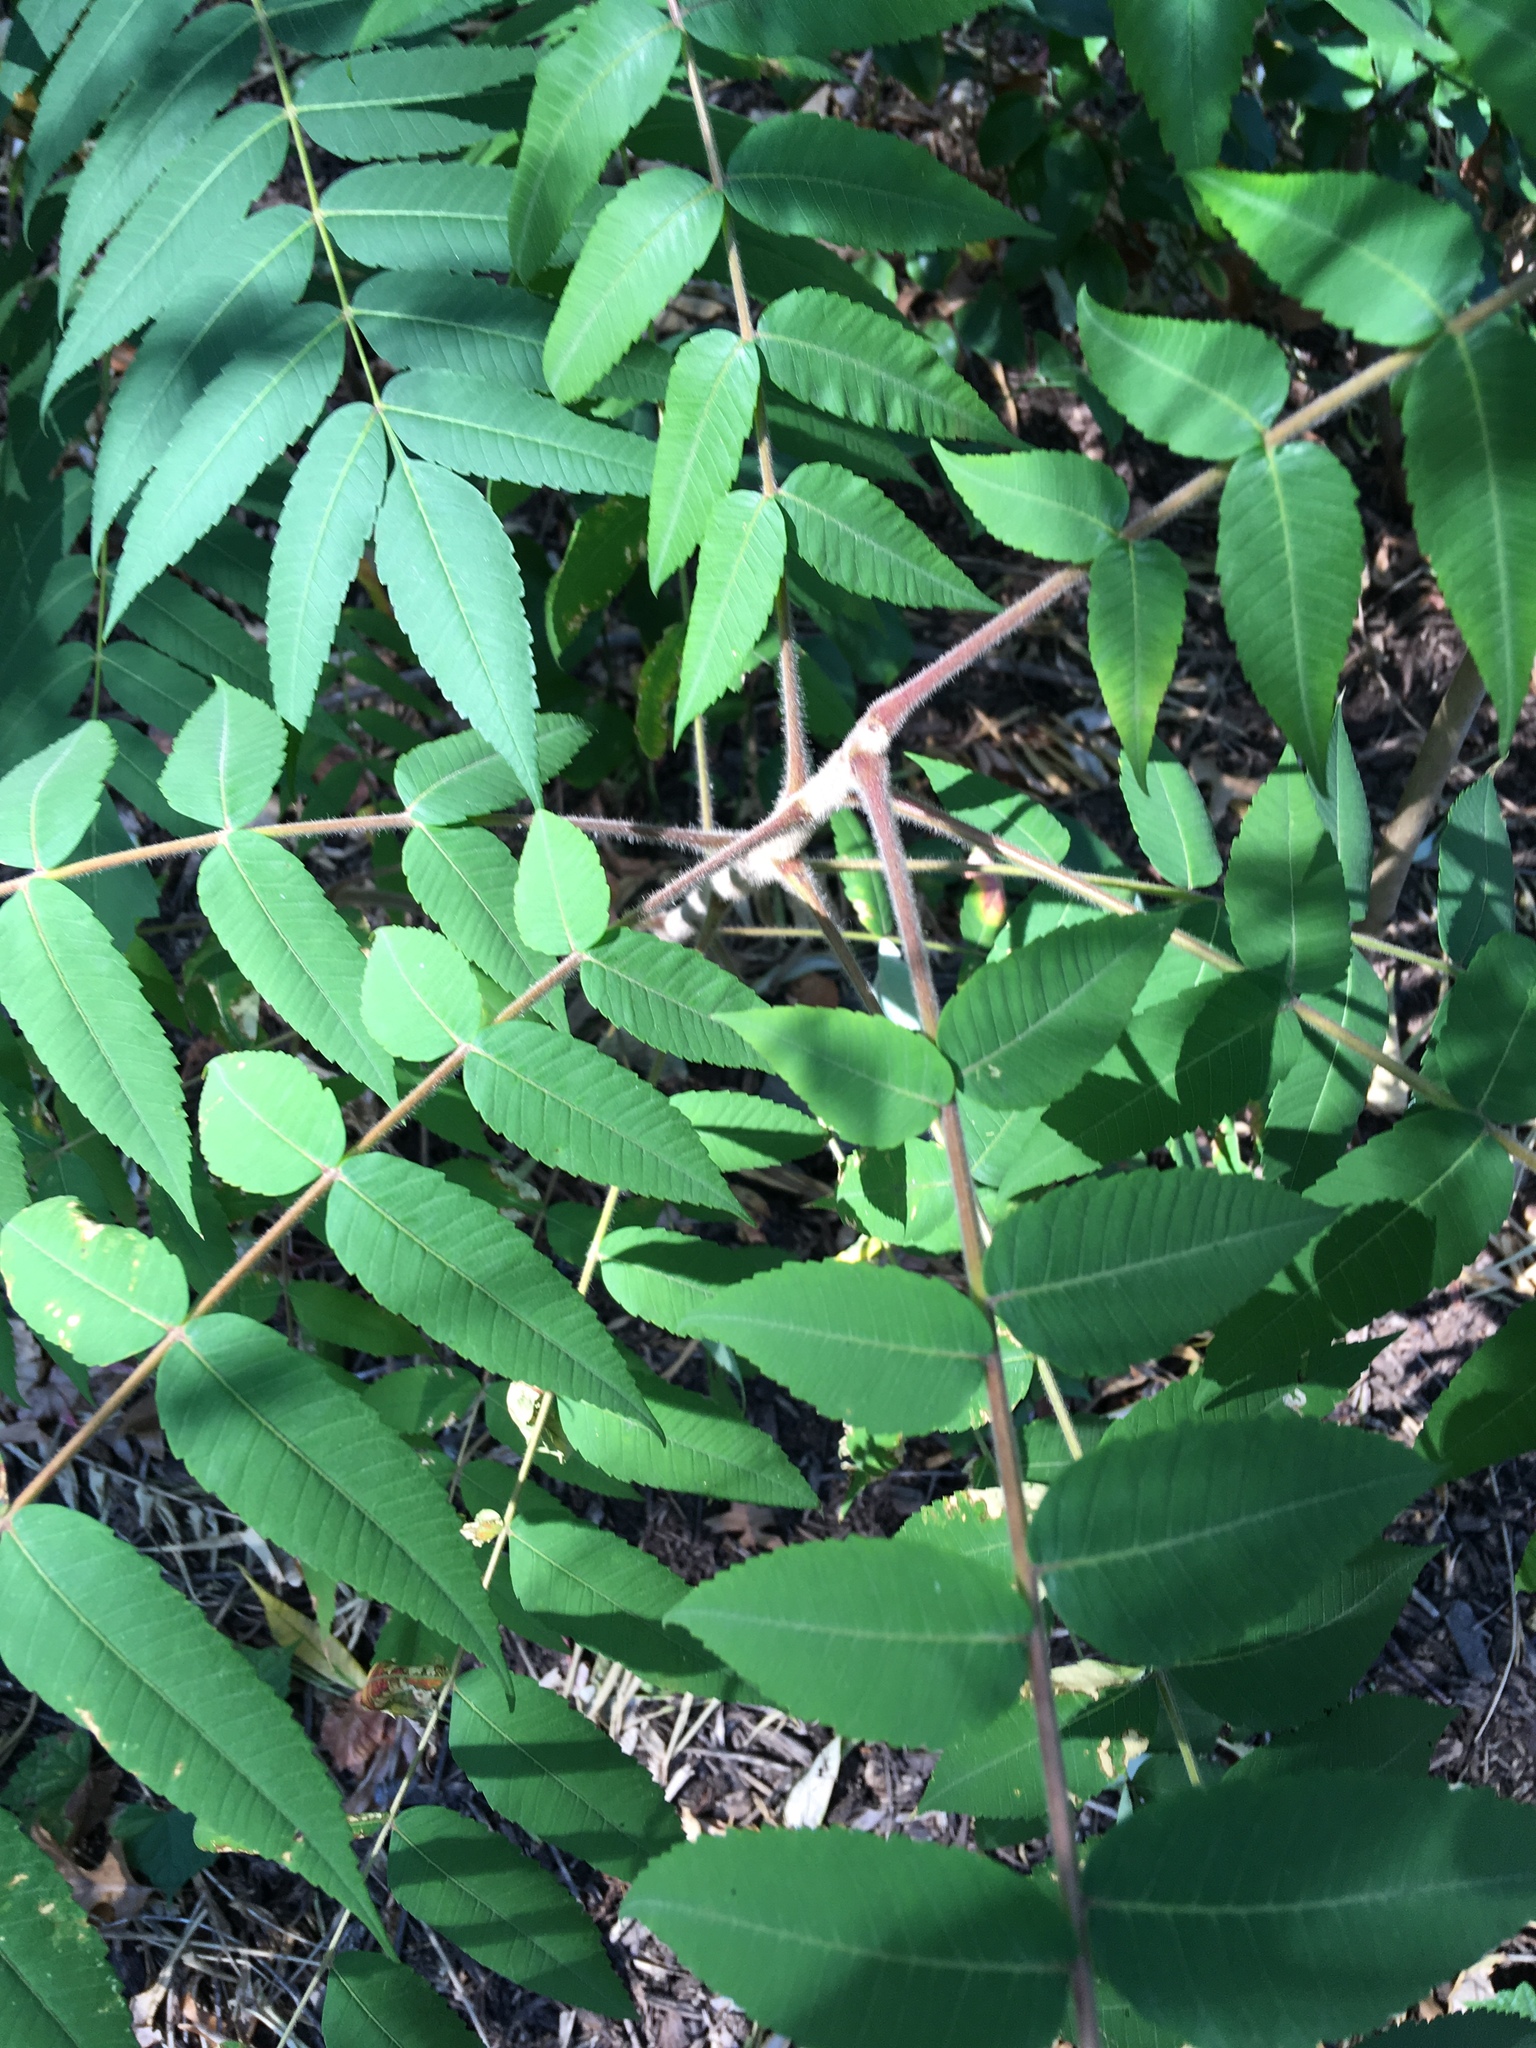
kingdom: Plantae
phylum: Tracheophyta
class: Magnoliopsida
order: Sapindales
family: Anacardiaceae
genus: Rhus
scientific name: Rhus typhina
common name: Staghorn sumac
